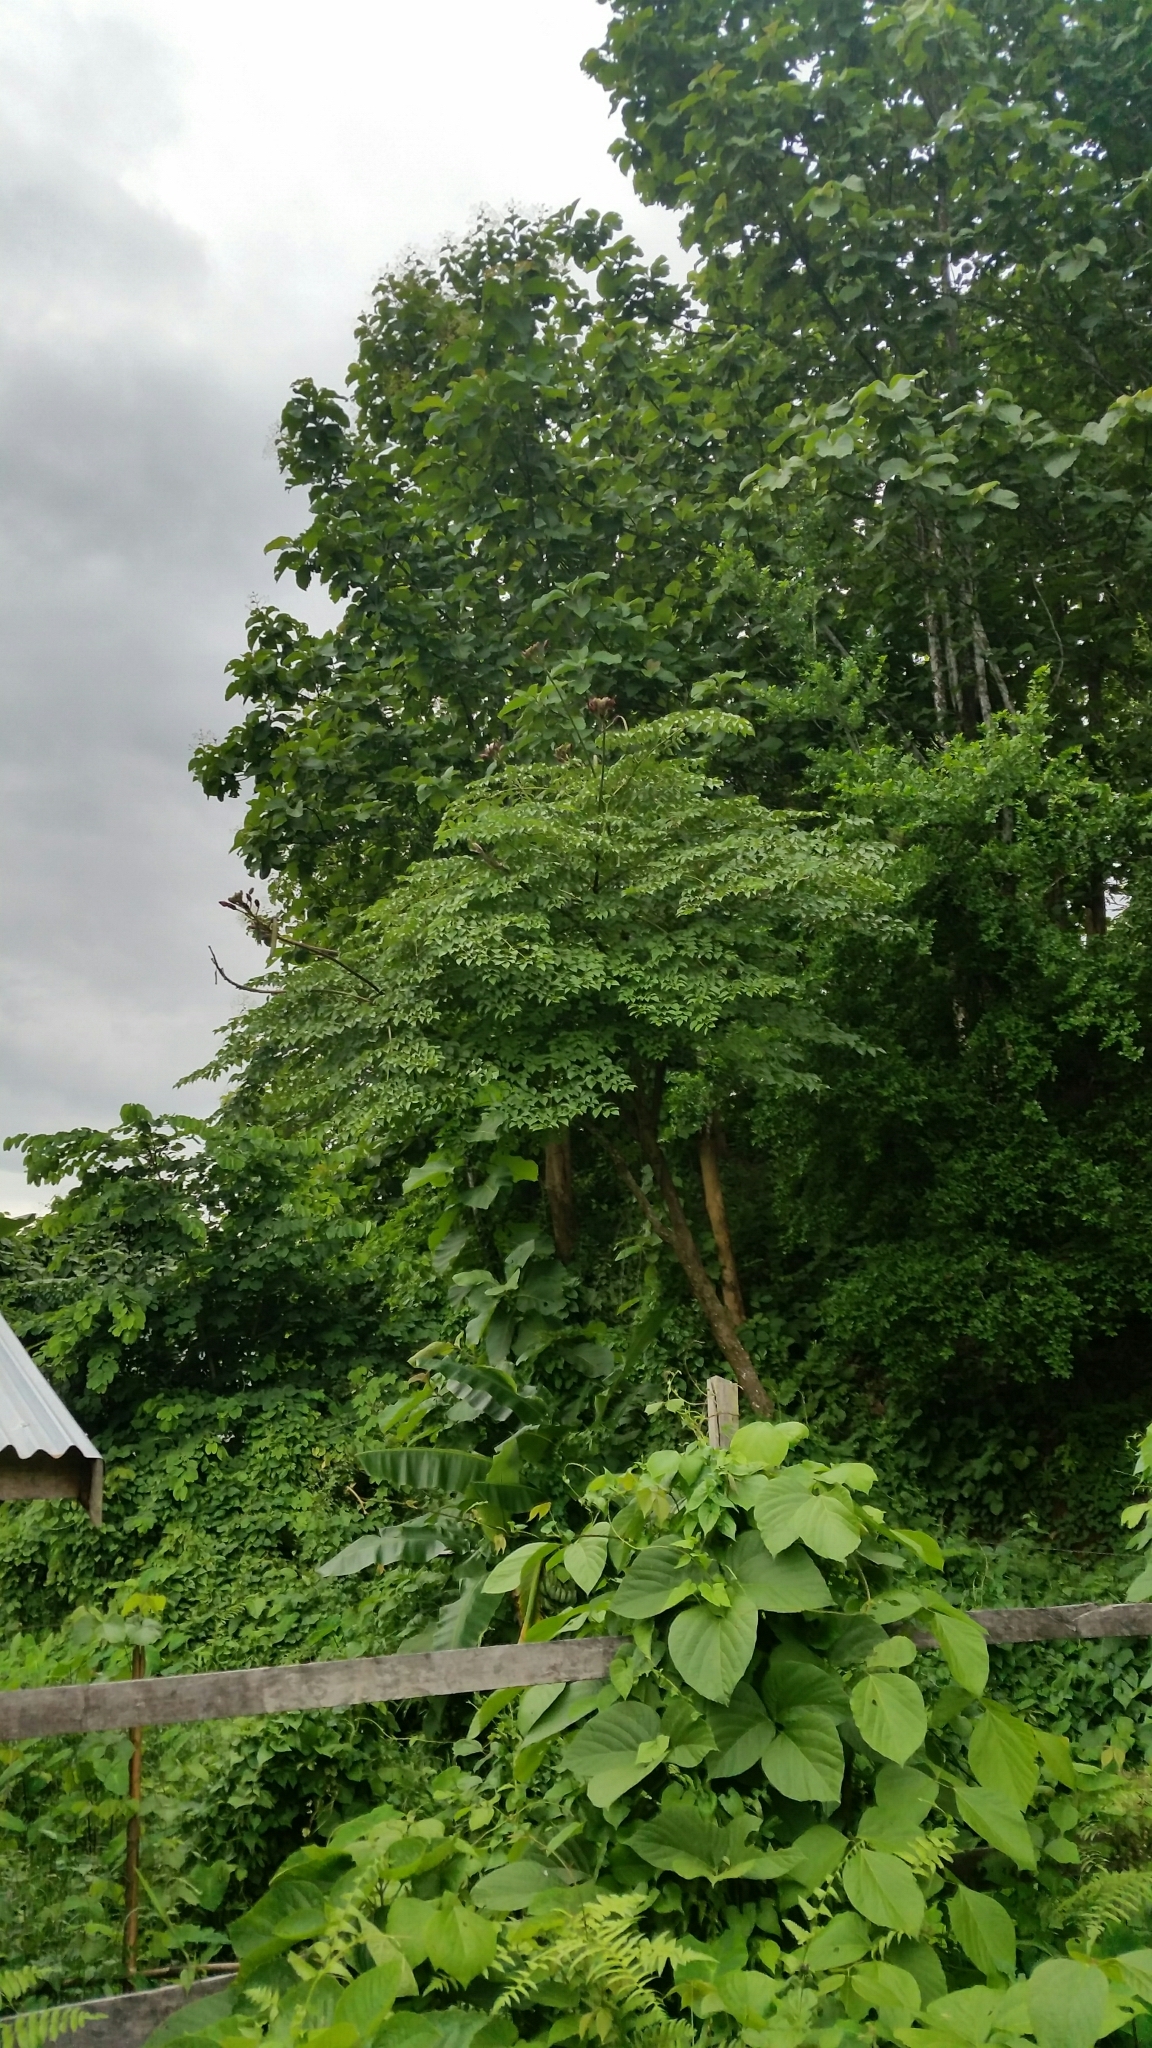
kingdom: Plantae
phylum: Tracheophyta
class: Magnoliopsida
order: Lamiales
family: Bignoniaceae
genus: Oroxylum
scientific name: Oroxylum indicum
